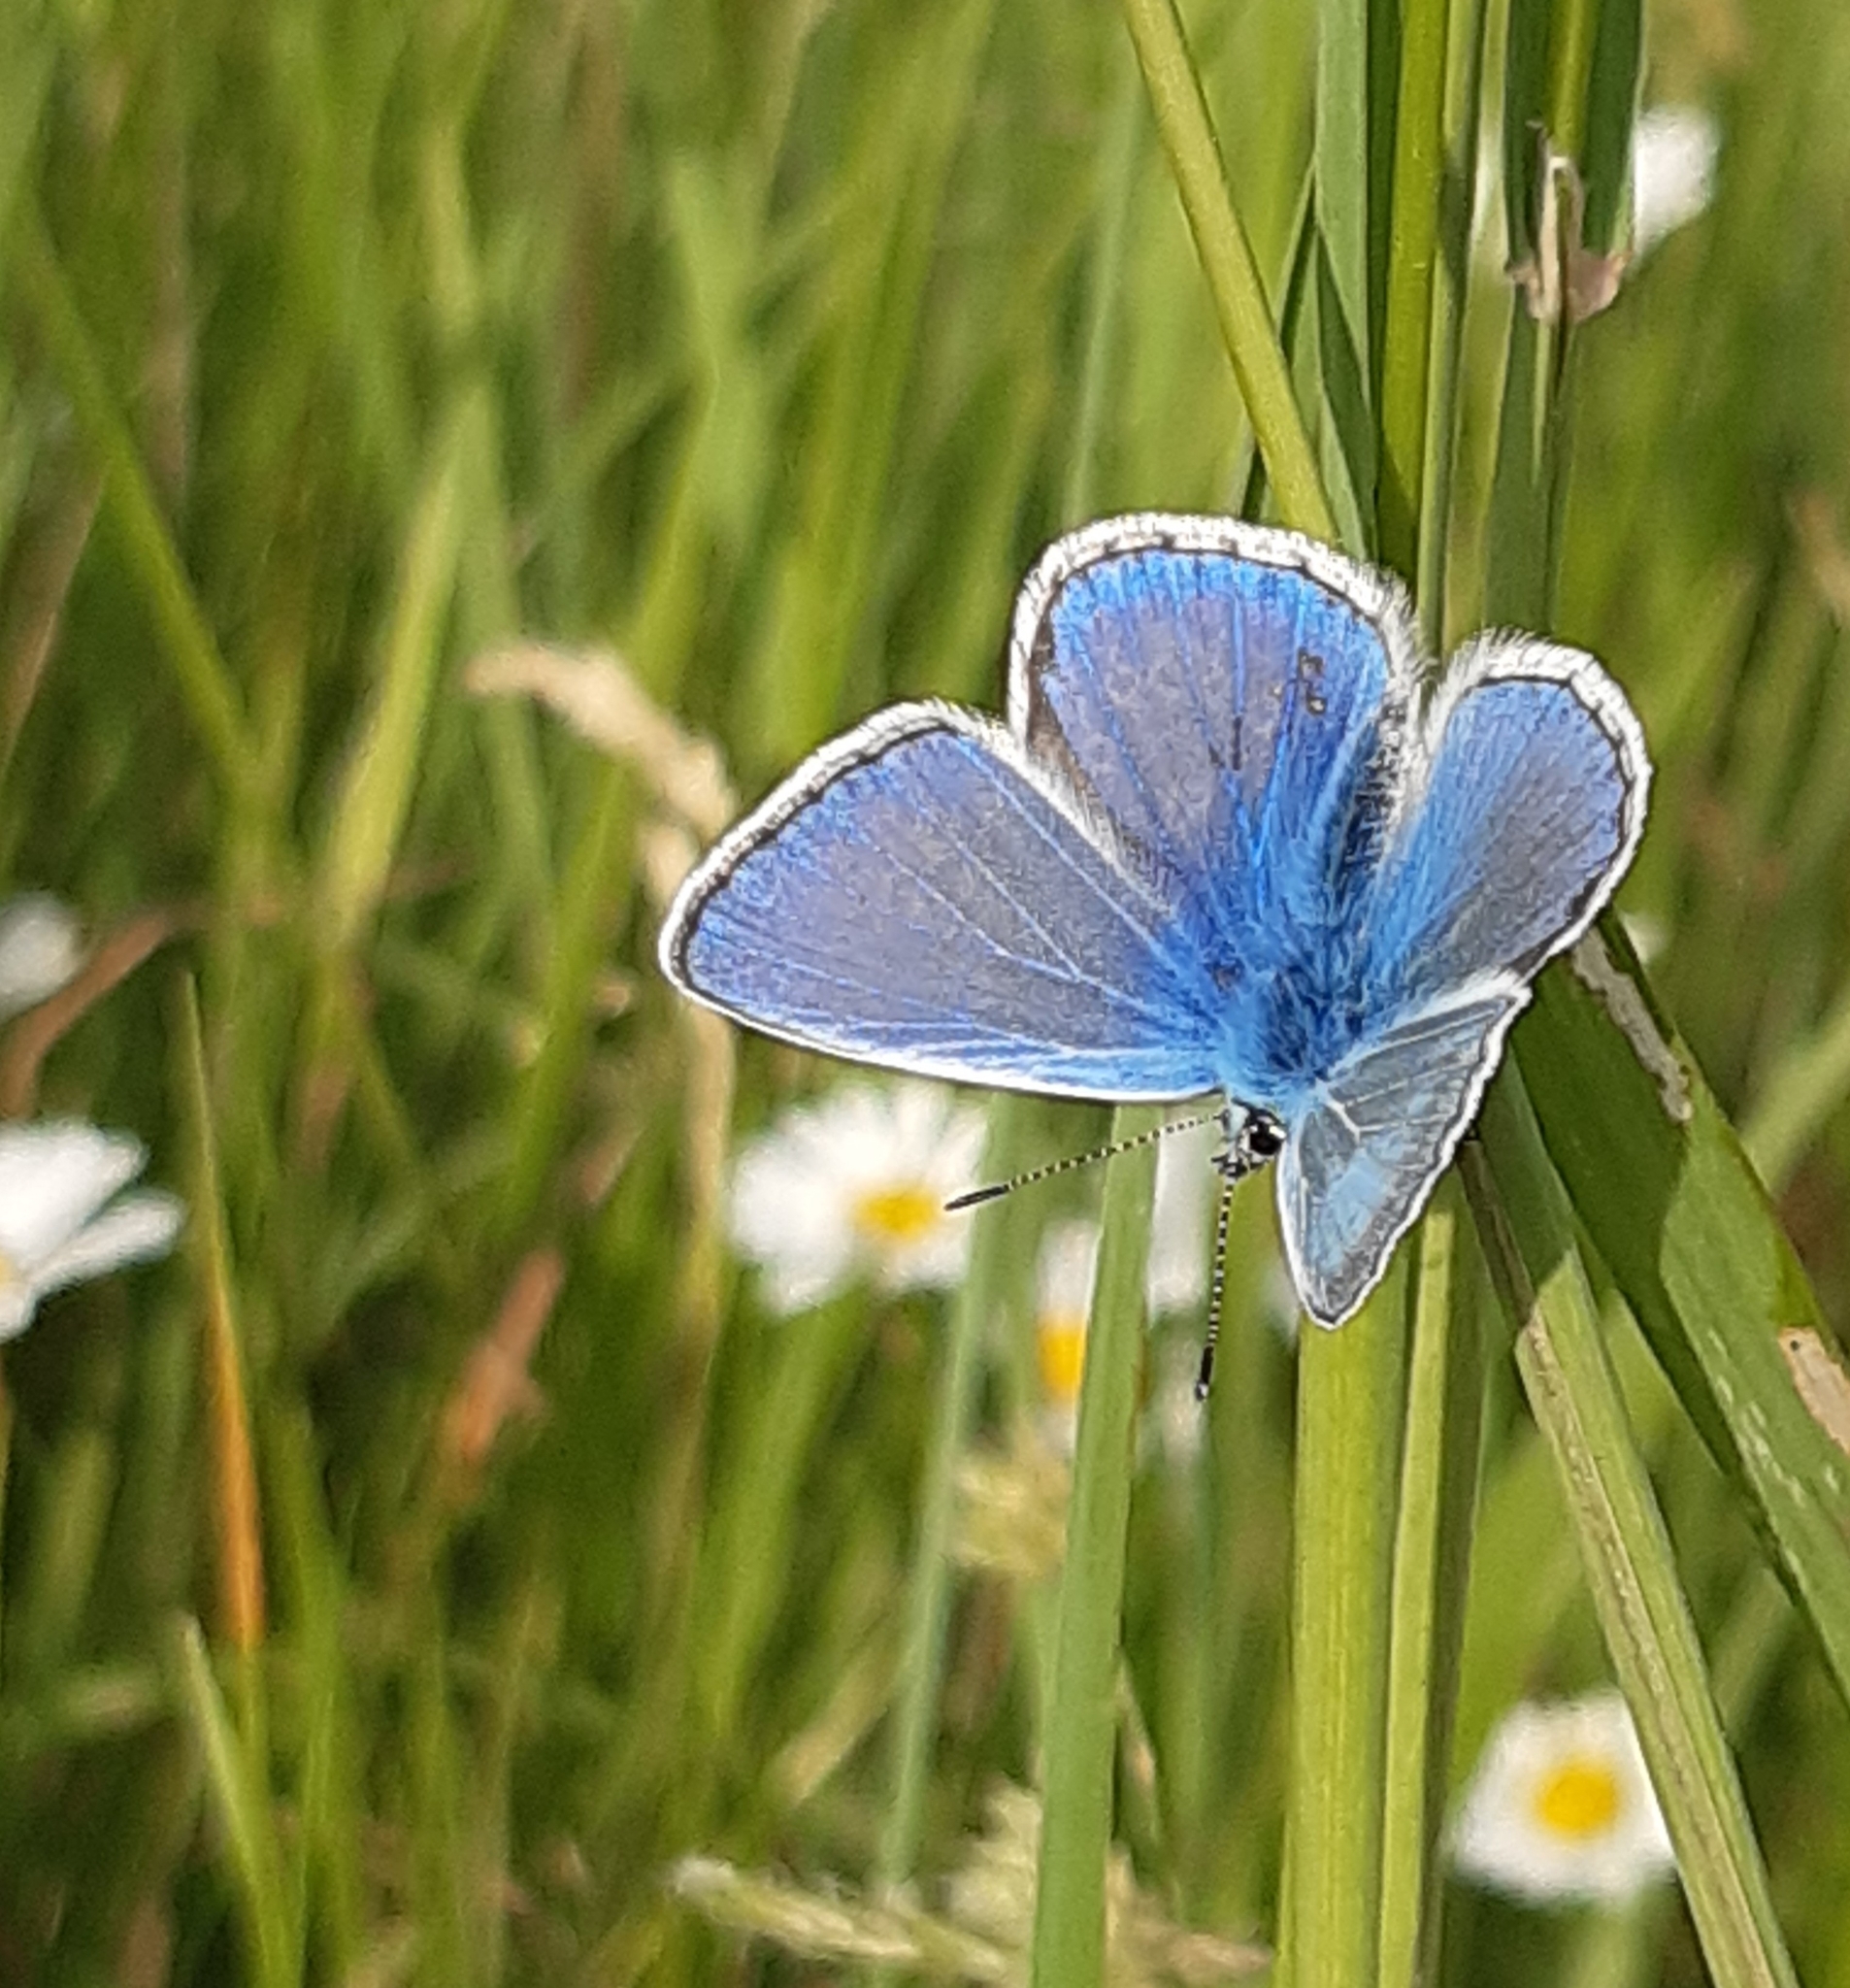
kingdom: Animalia
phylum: Arthropoda
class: Insecta
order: Lepidoptera
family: Lycaenidae
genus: Polyommatus
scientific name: Polyommatus icarus
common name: Common blue
